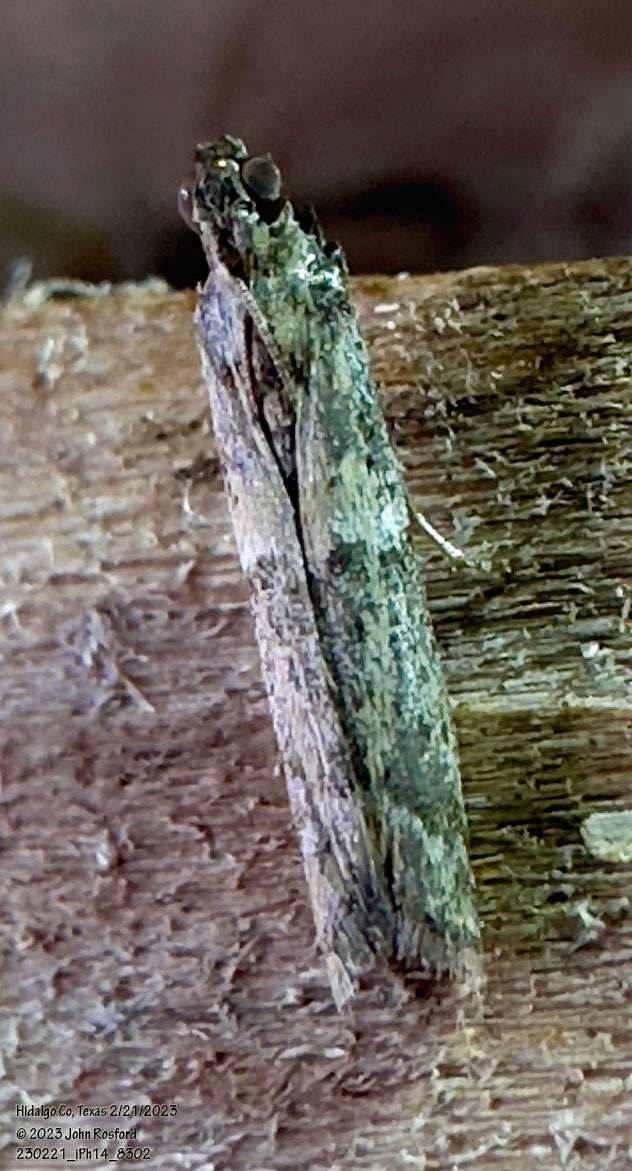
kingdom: Animalia
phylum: Arthropoda
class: Insecta
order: Lepidoptera
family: Pyralidae
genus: Ephestiodes
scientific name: Ephestiodes gilvescentella
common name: Moth
